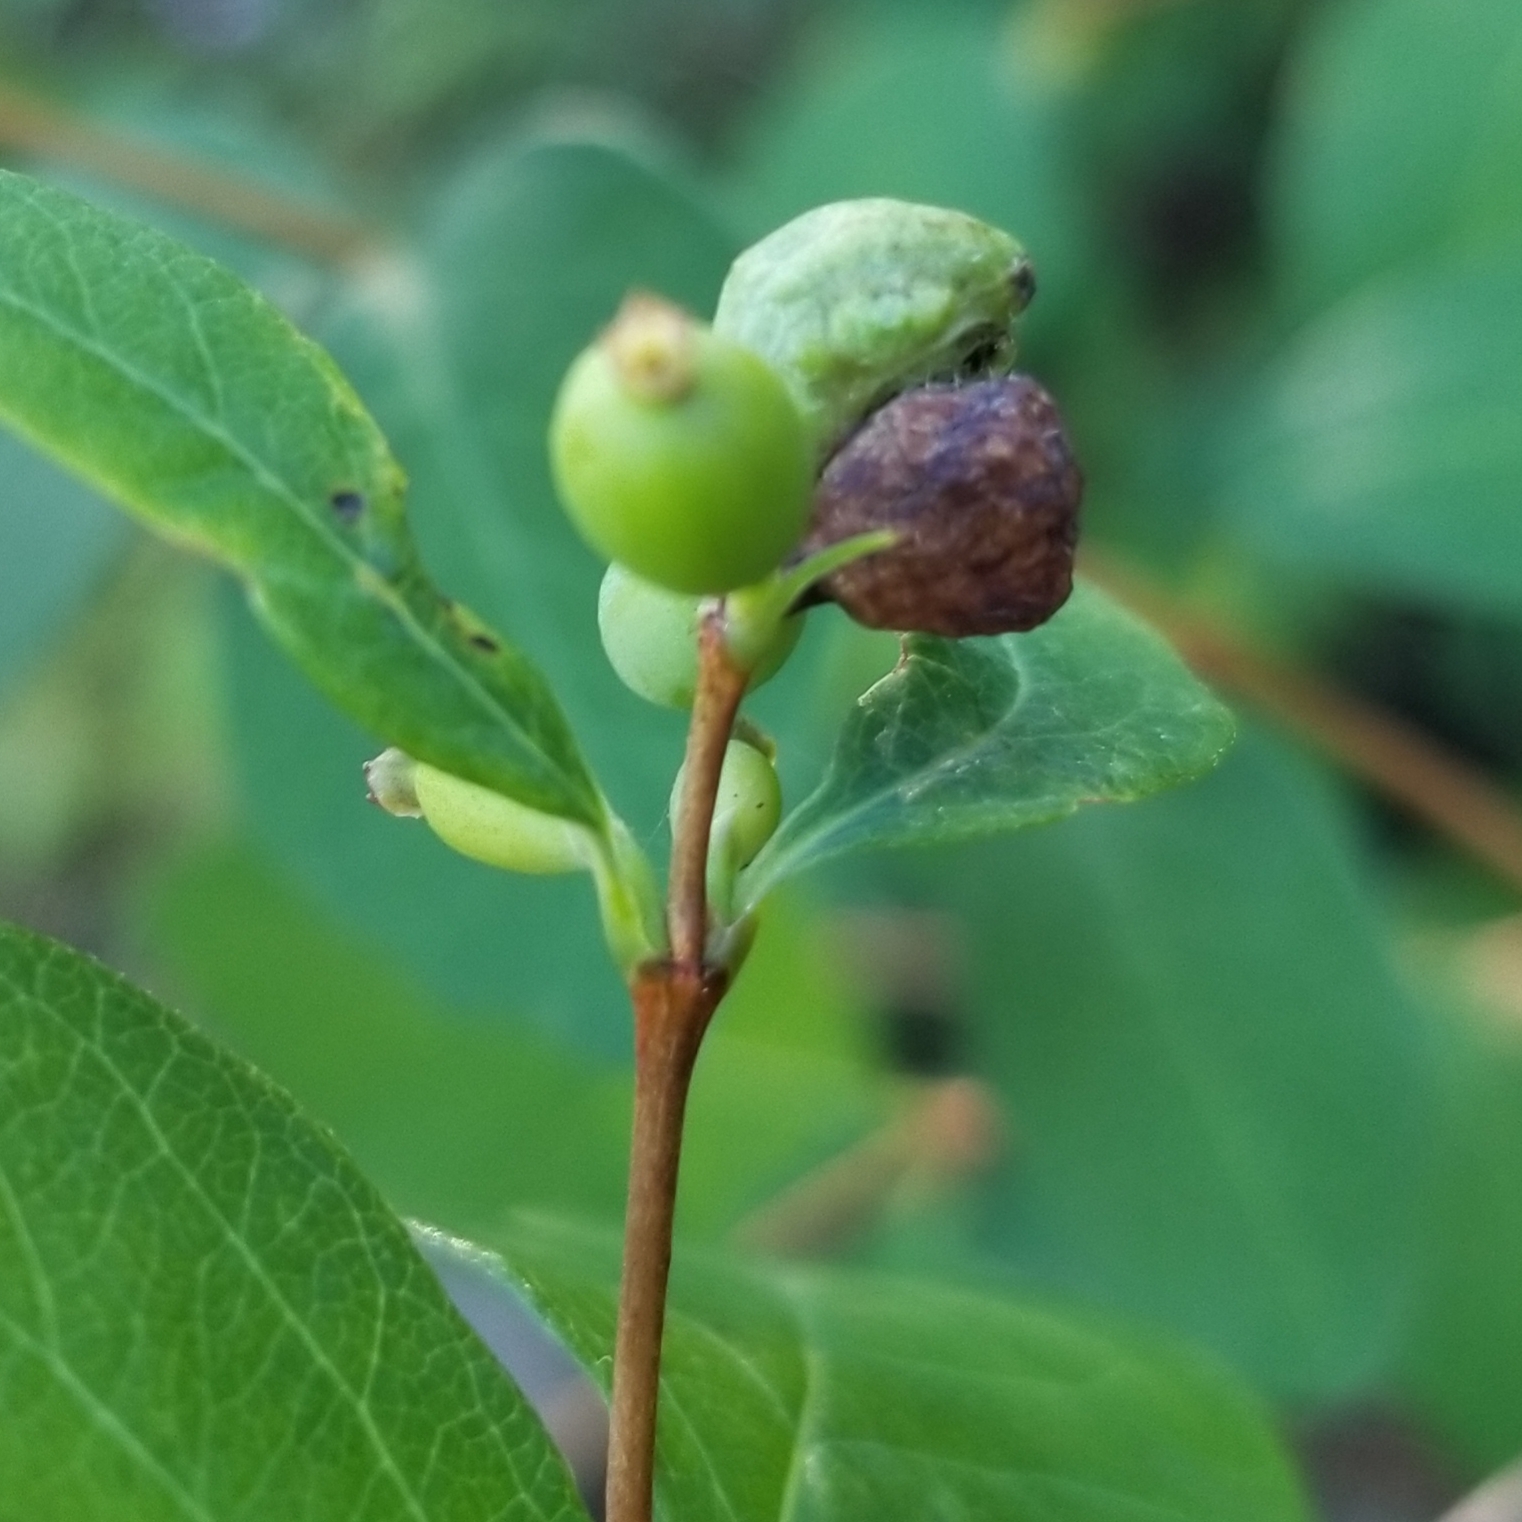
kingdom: Animalia
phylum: Arthropoda
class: Insecta
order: Hymenoptera
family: Tenthredinidae
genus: Blennogeneris
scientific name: Blennogeneris spissipes
